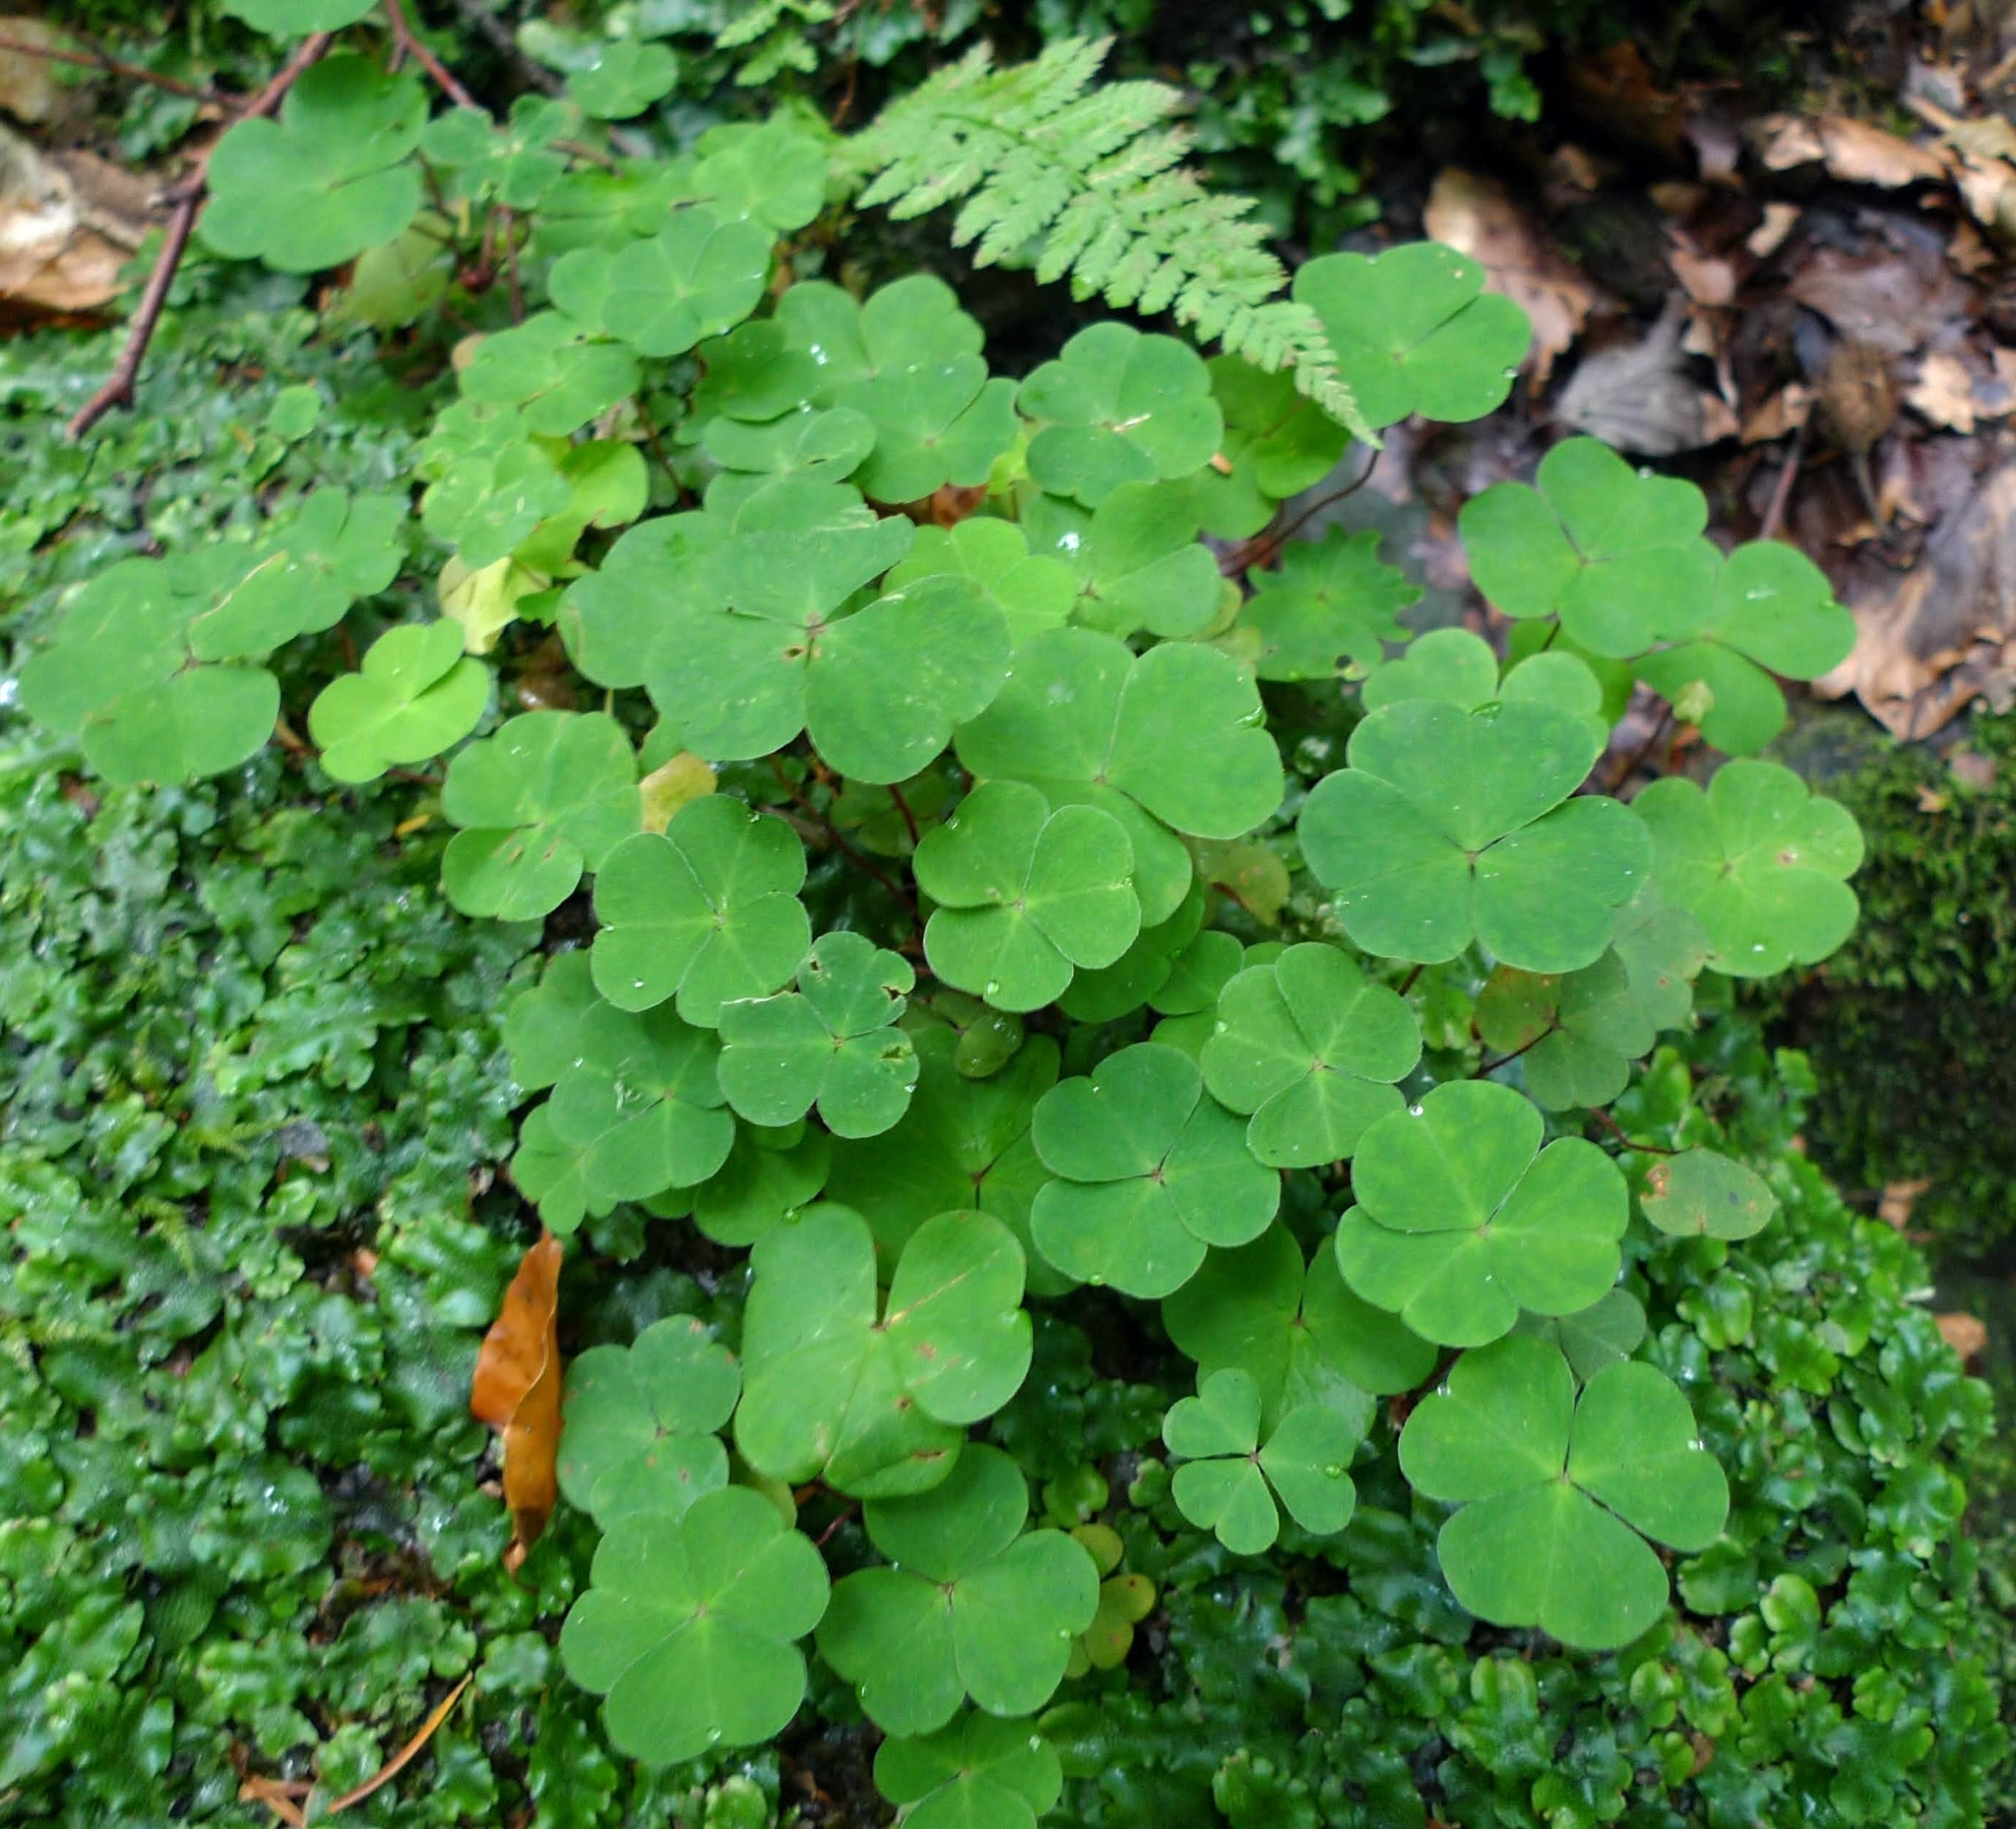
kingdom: Plantae
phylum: Tracheophyta
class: Magnoliopsida
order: Oxalidales
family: Oxalidaceae
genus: Oxalis
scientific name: Oxalis acetosella
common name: Wood-sorrel
